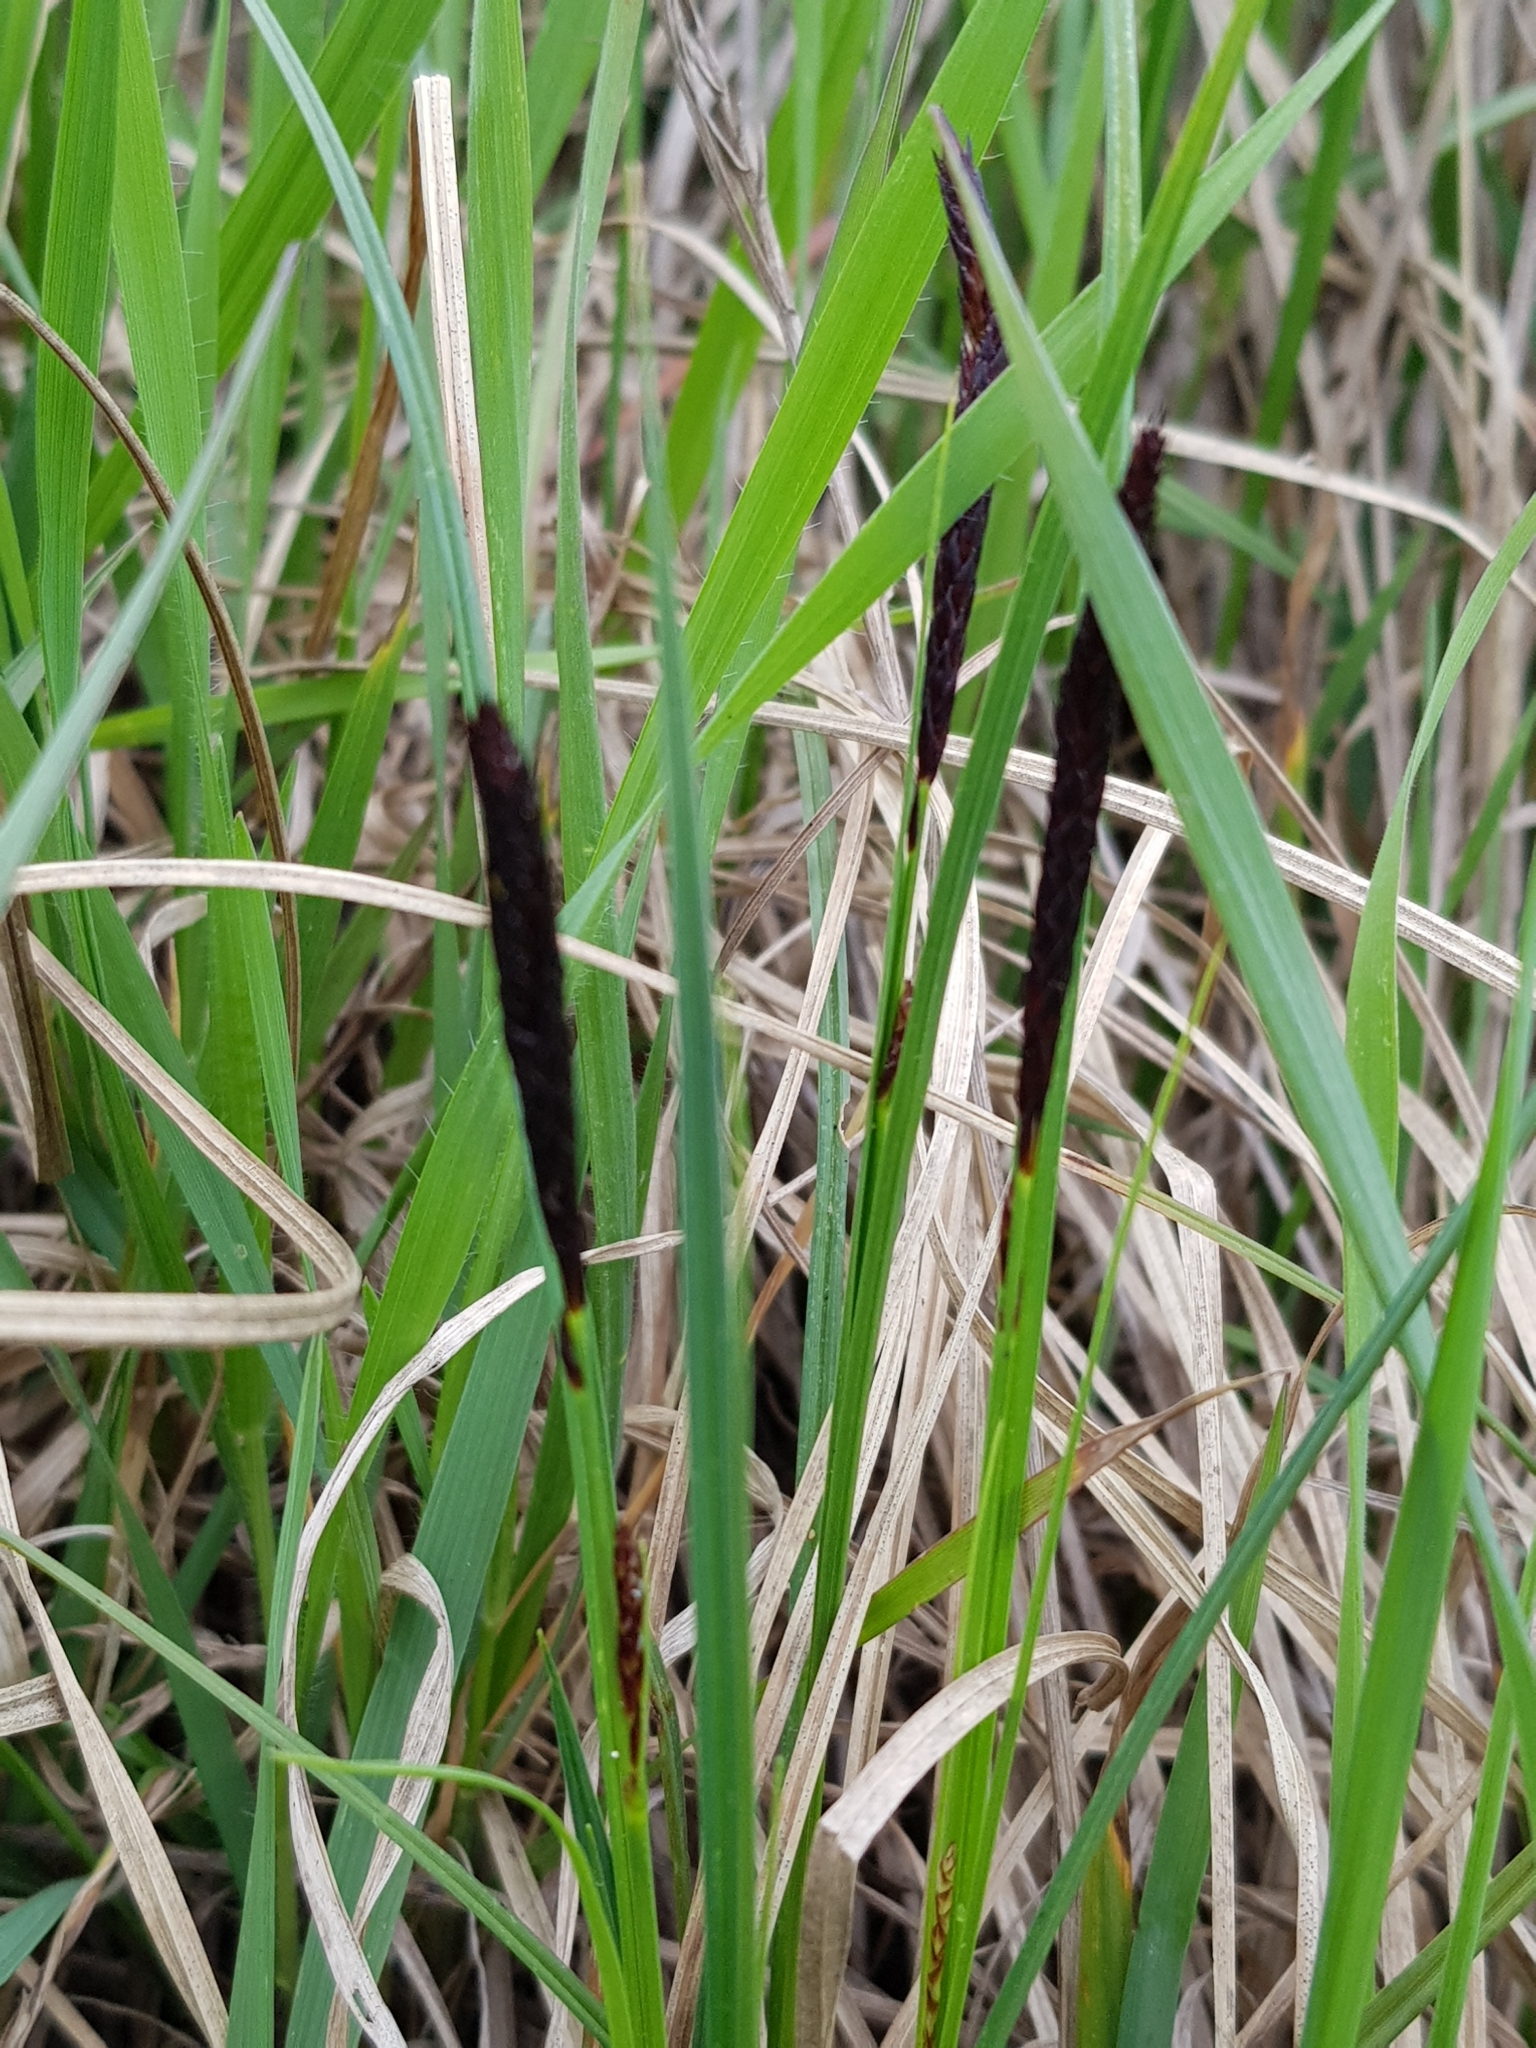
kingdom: Plantae
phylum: Tracheophyta
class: Liliopsida
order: Poales
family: Cyperaceae
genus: Carex
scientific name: Carex melanostachya
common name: Black-spiked sedge
